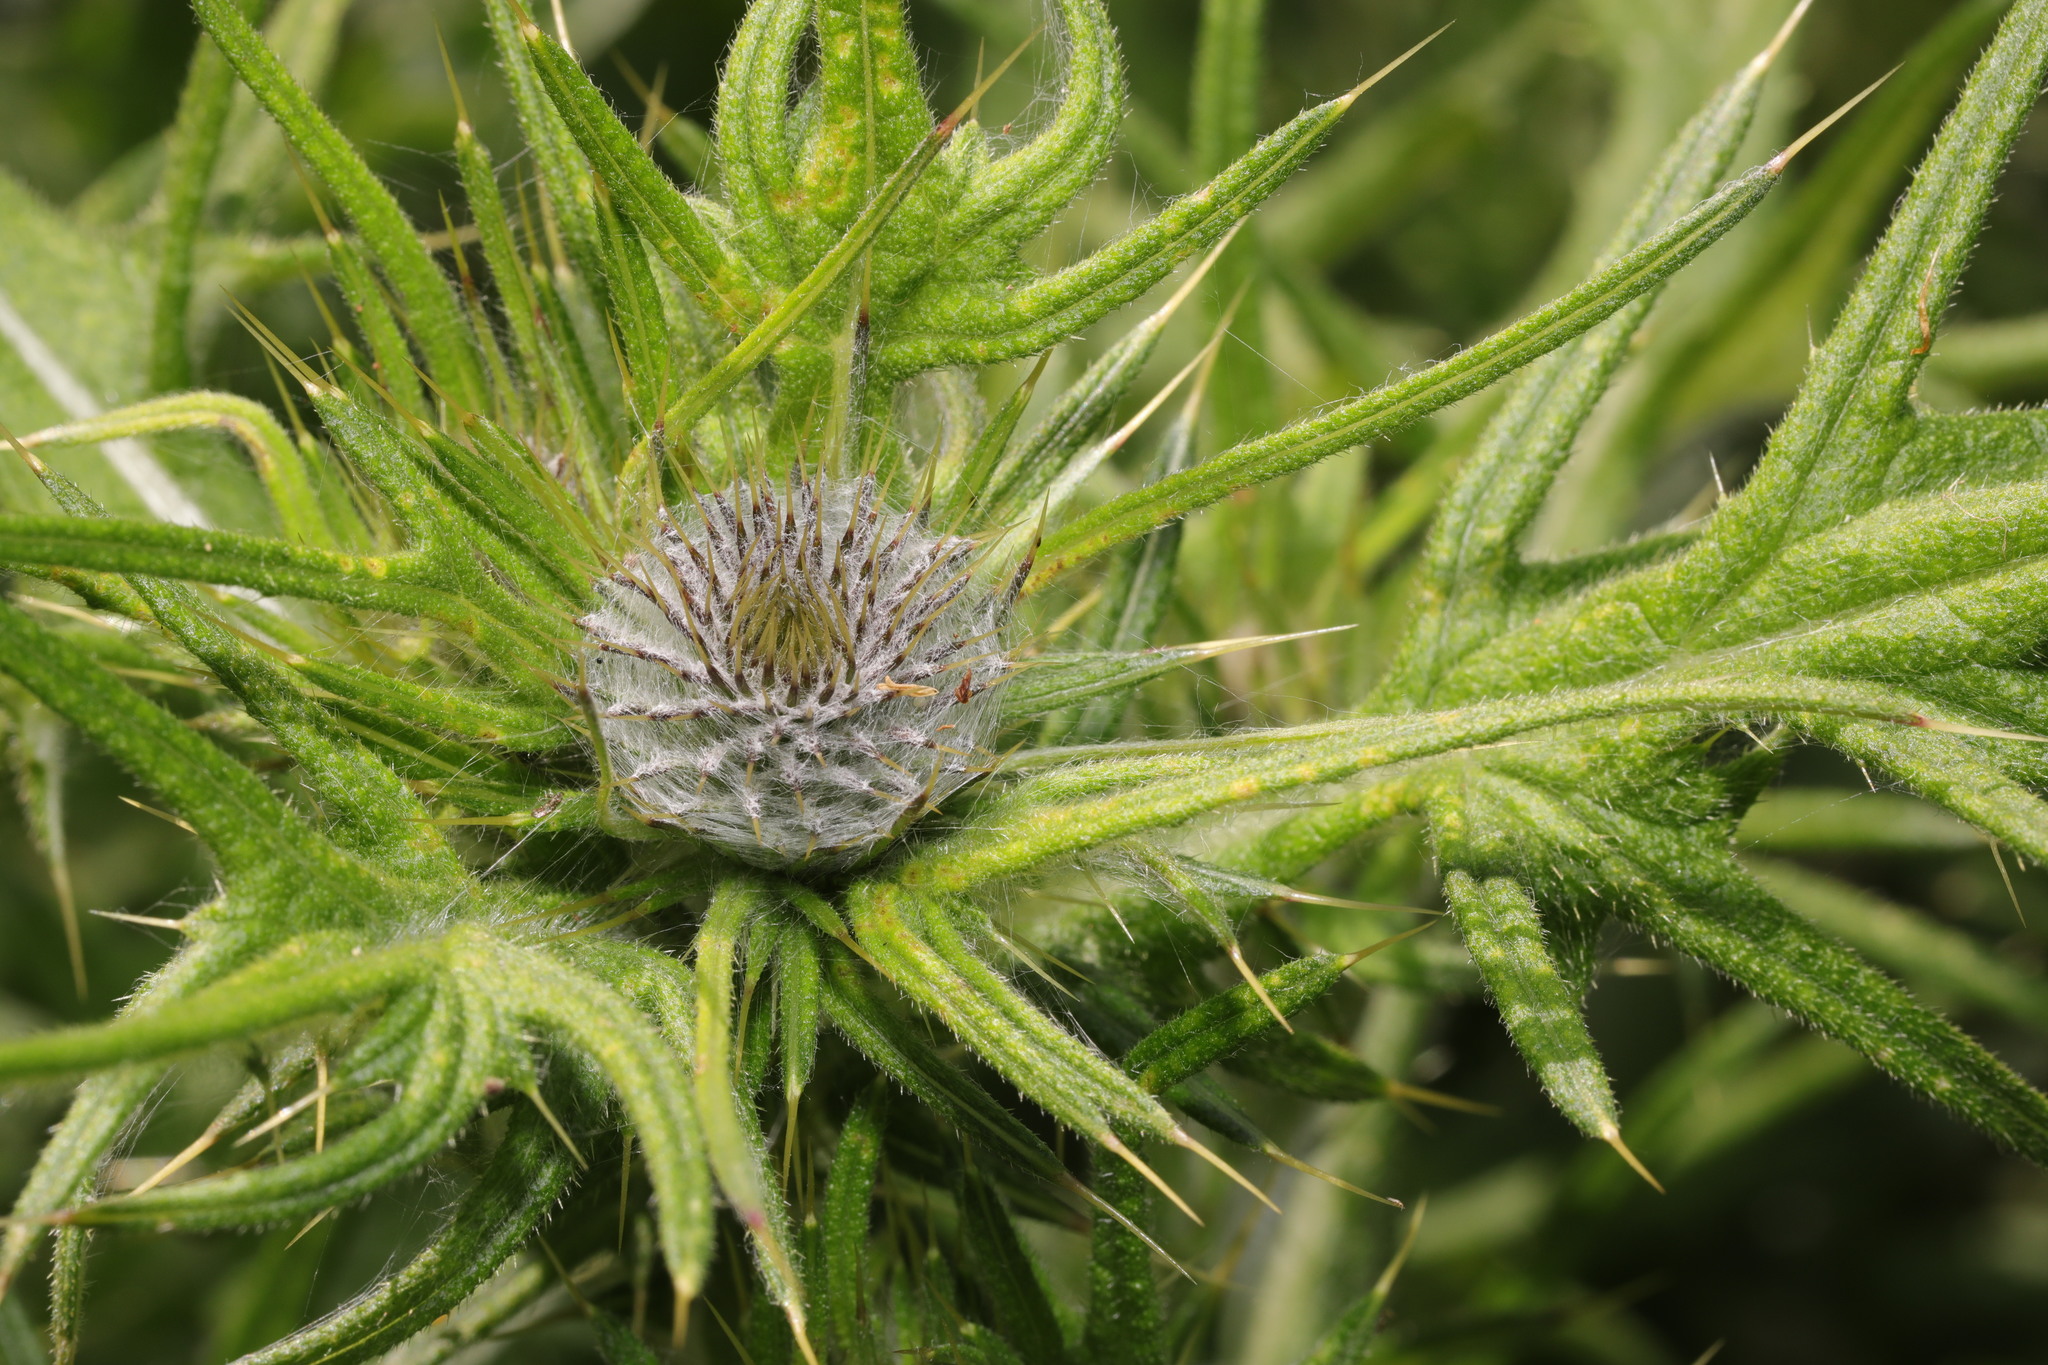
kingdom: Plantae
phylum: Tracheophyta
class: Magnoliopsida
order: Asterales
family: Asteraceae
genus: Cirsium
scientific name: Cirsium vulgare
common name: Bull thistle
